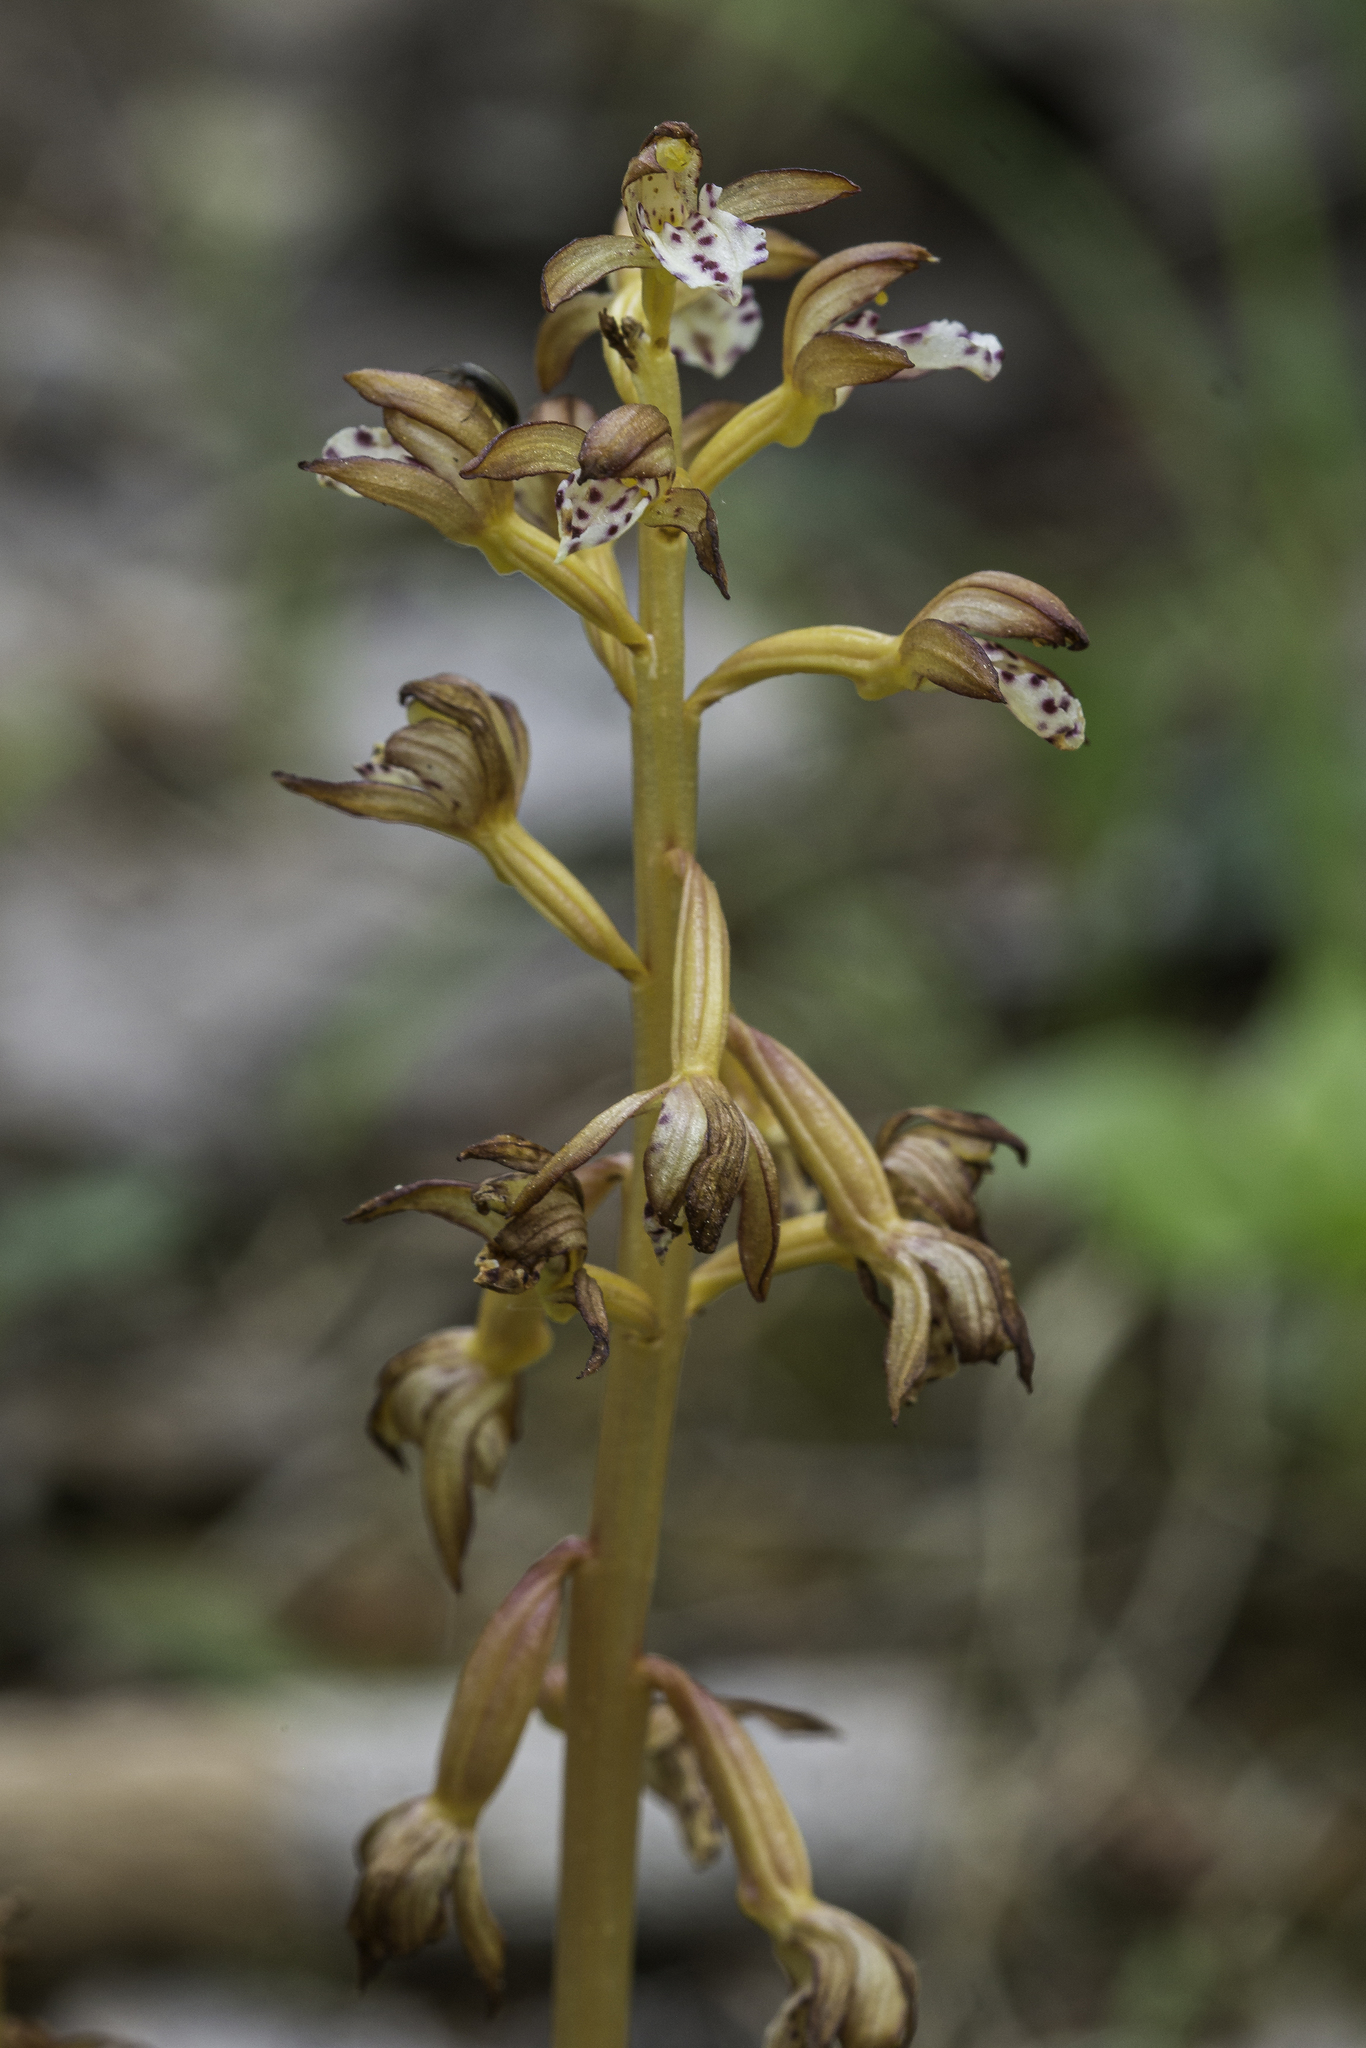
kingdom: Plantae
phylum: Tracheophyta
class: Liliopsida
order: Asparagales
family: Orchidaceae
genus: Corallorhiza
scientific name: Corallorhiza maculata
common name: Spotted coralroot
